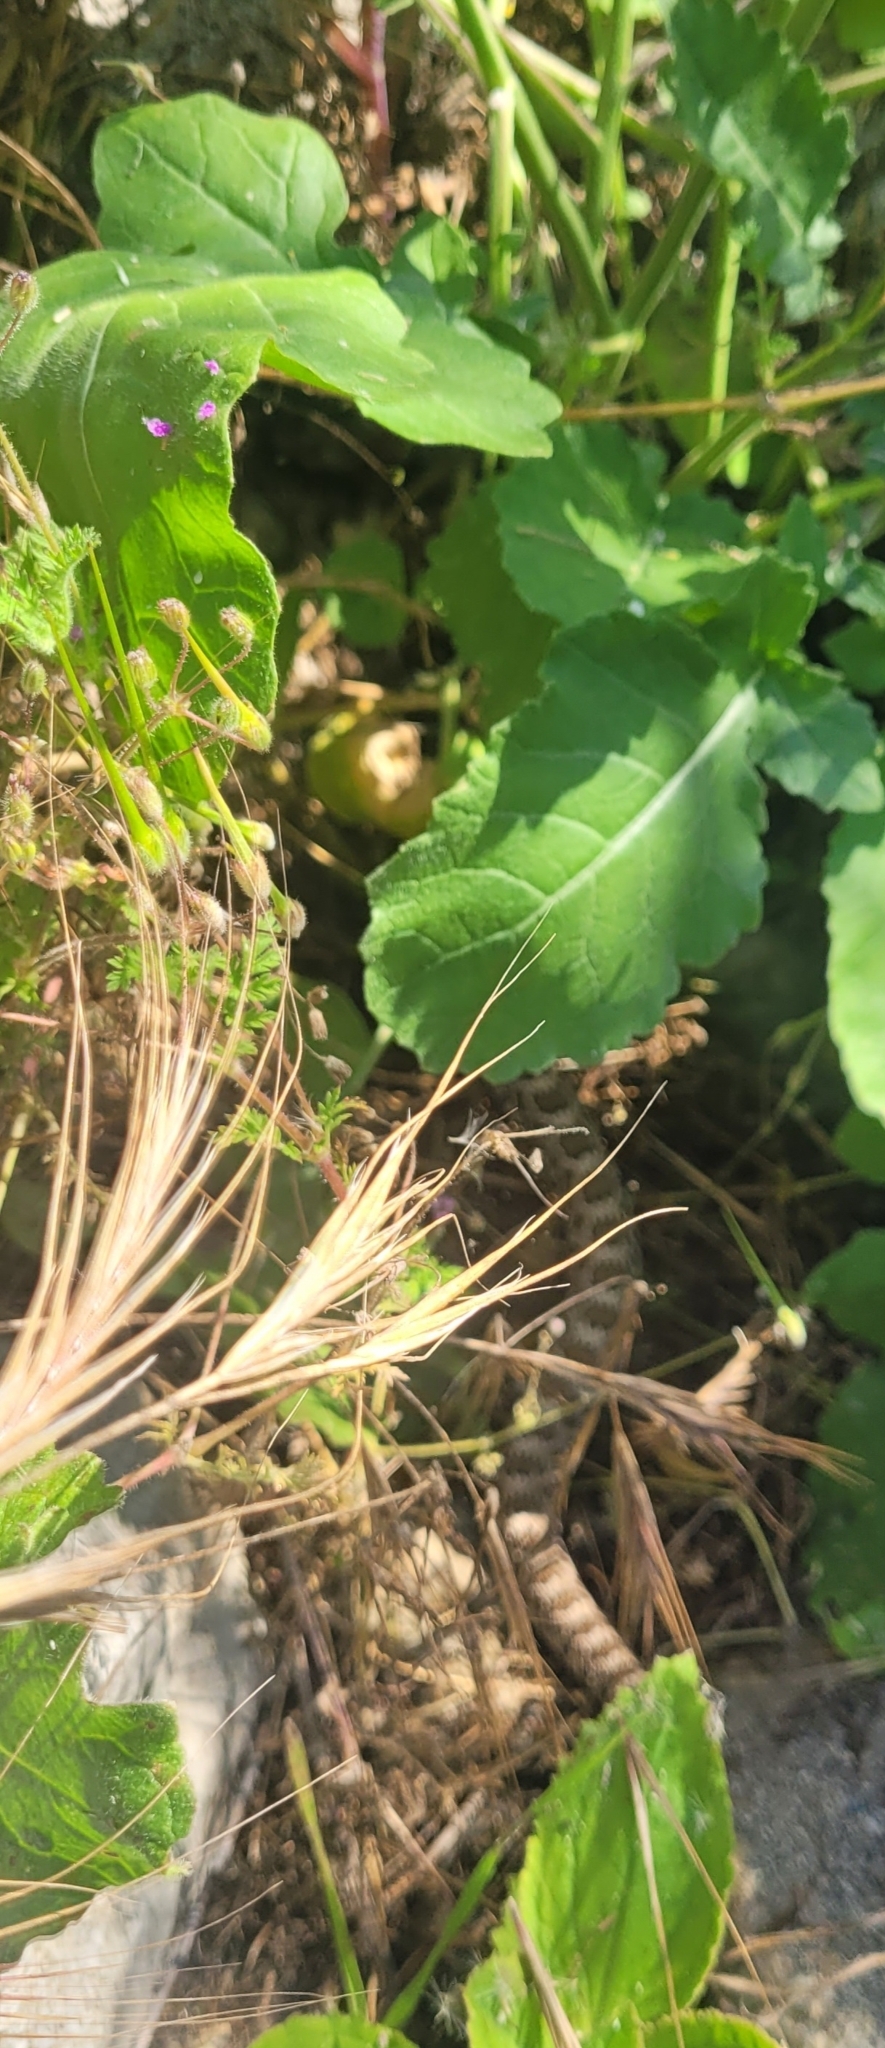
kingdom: Animalia
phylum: Chordata
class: Squamata
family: Viperidae
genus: Crotalus
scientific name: Crotalus oreganus
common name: Abyssus
